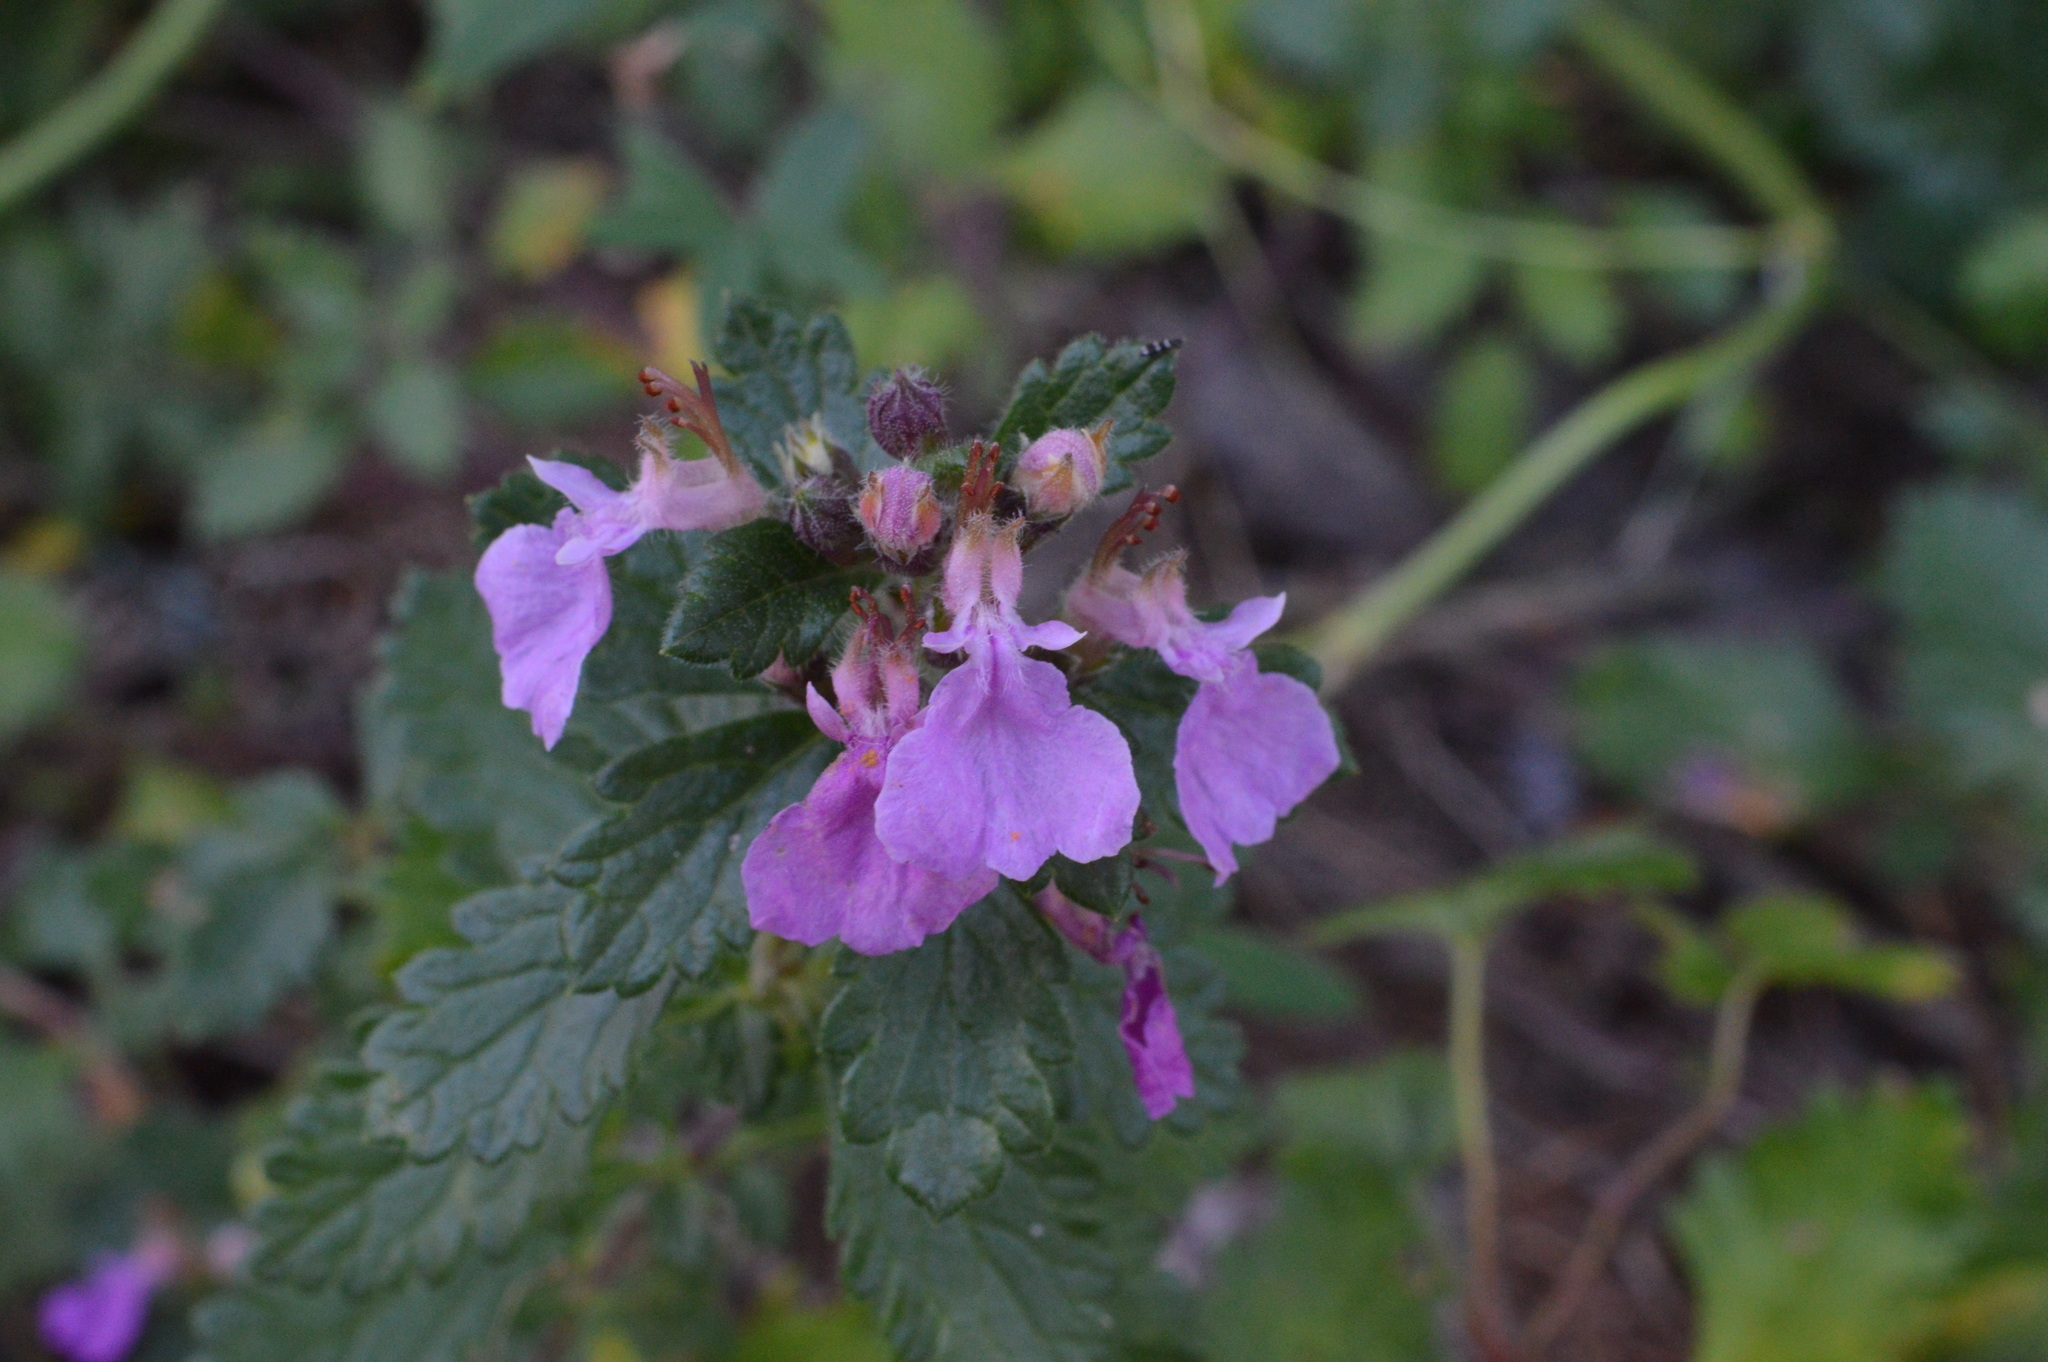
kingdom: Plantae
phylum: Tracheophyta
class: Magnoliopsida
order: Lamiales
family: Lamiaceae
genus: Teucrium
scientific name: Teucrium chamaedrys
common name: Wall germander
